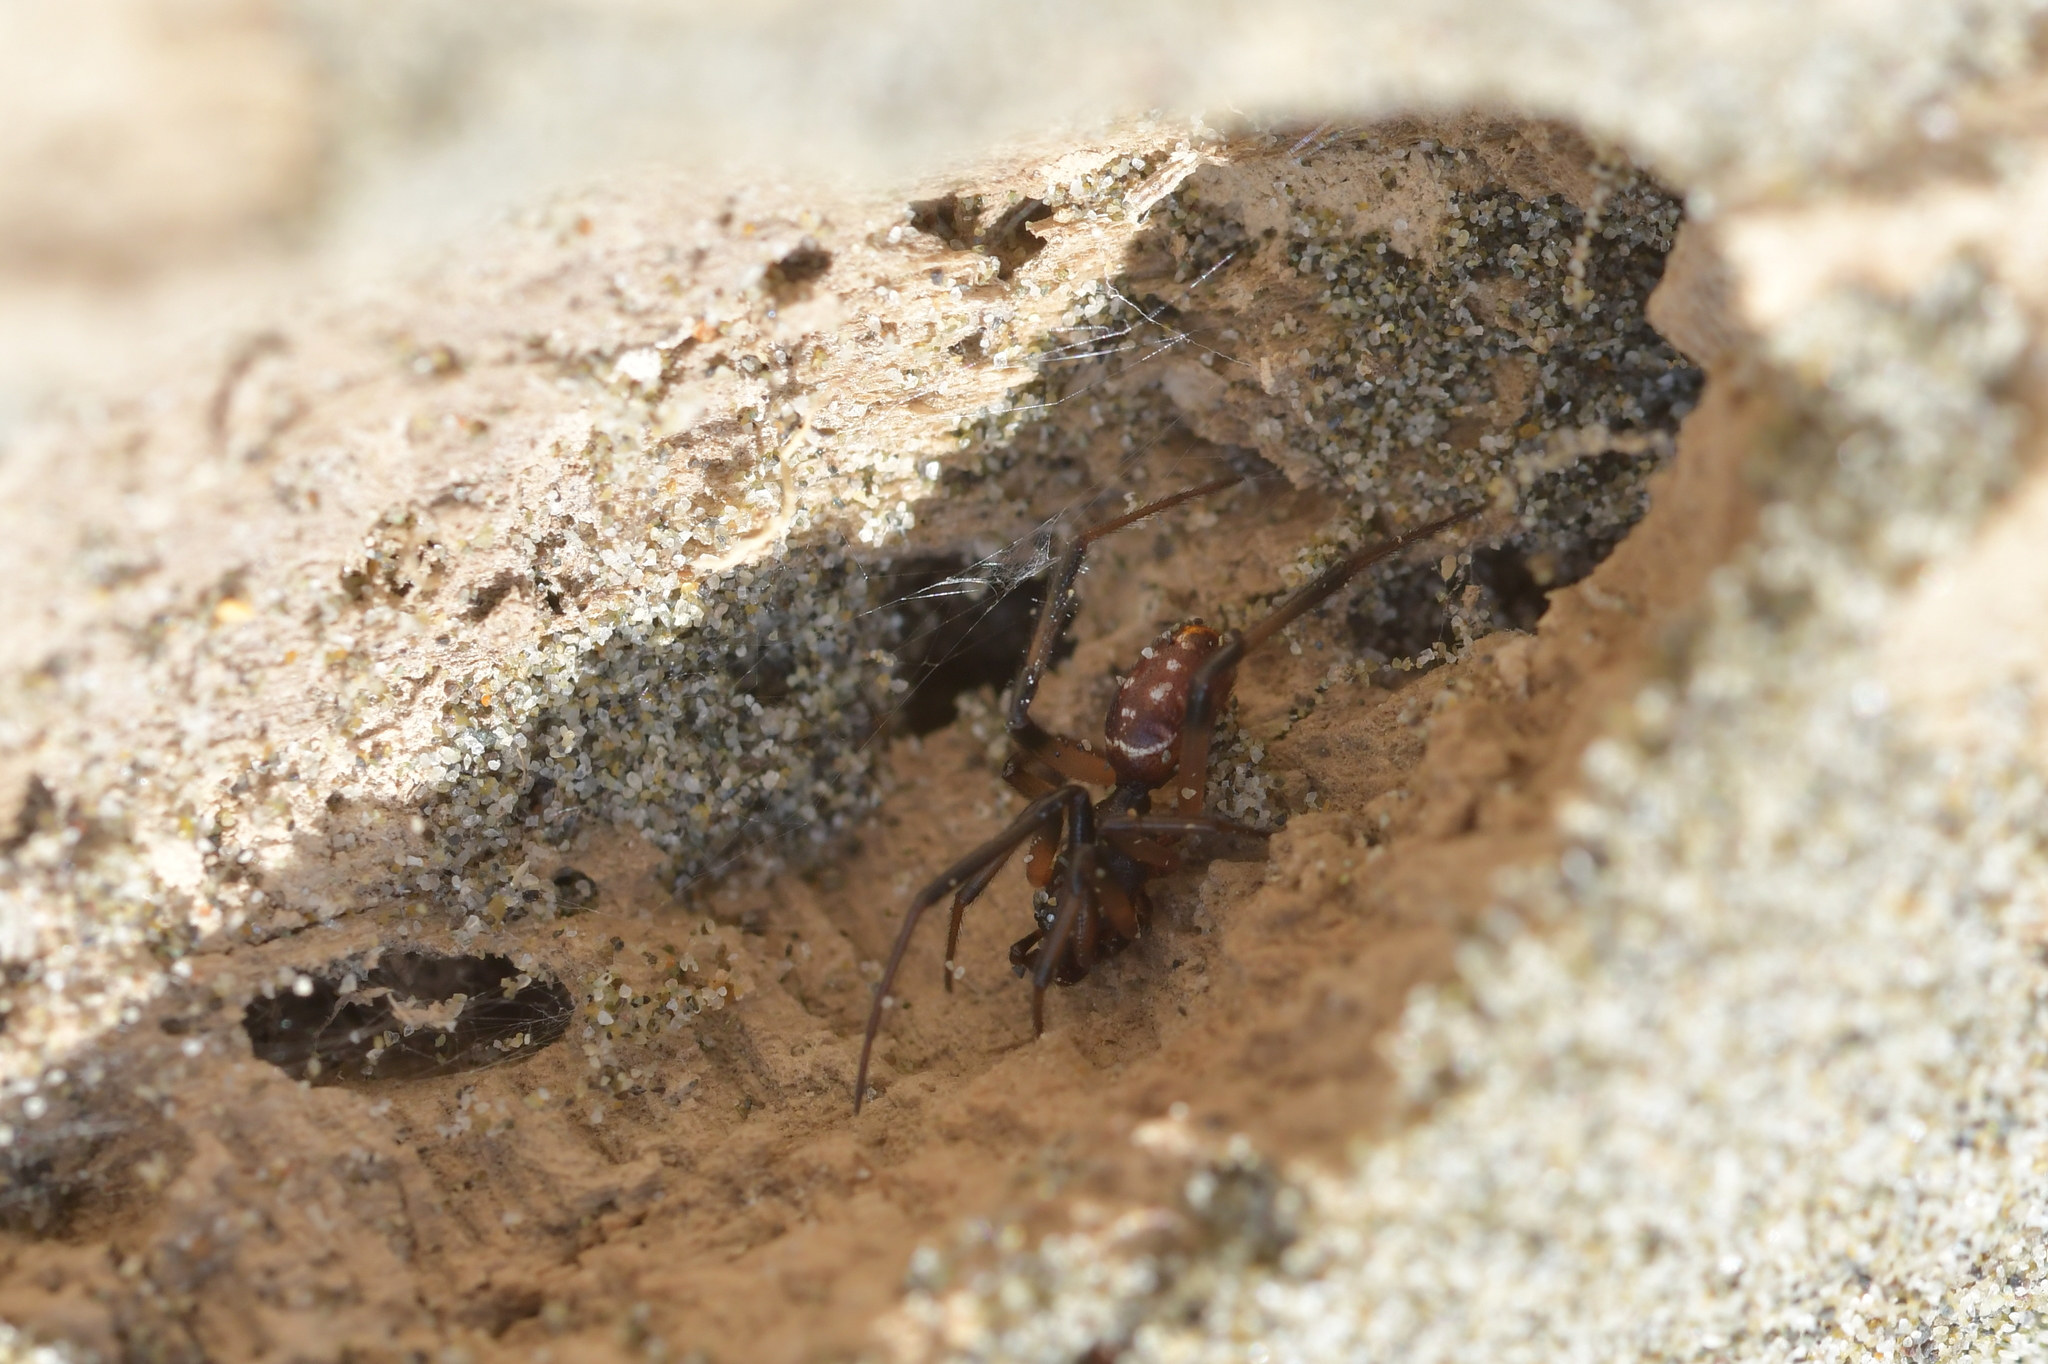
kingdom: Animalia
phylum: Arthropoda
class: Arachnida
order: Araneae
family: Theridiidae
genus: Steatoda
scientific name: Steatoda capensis
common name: Cobweb weaver
